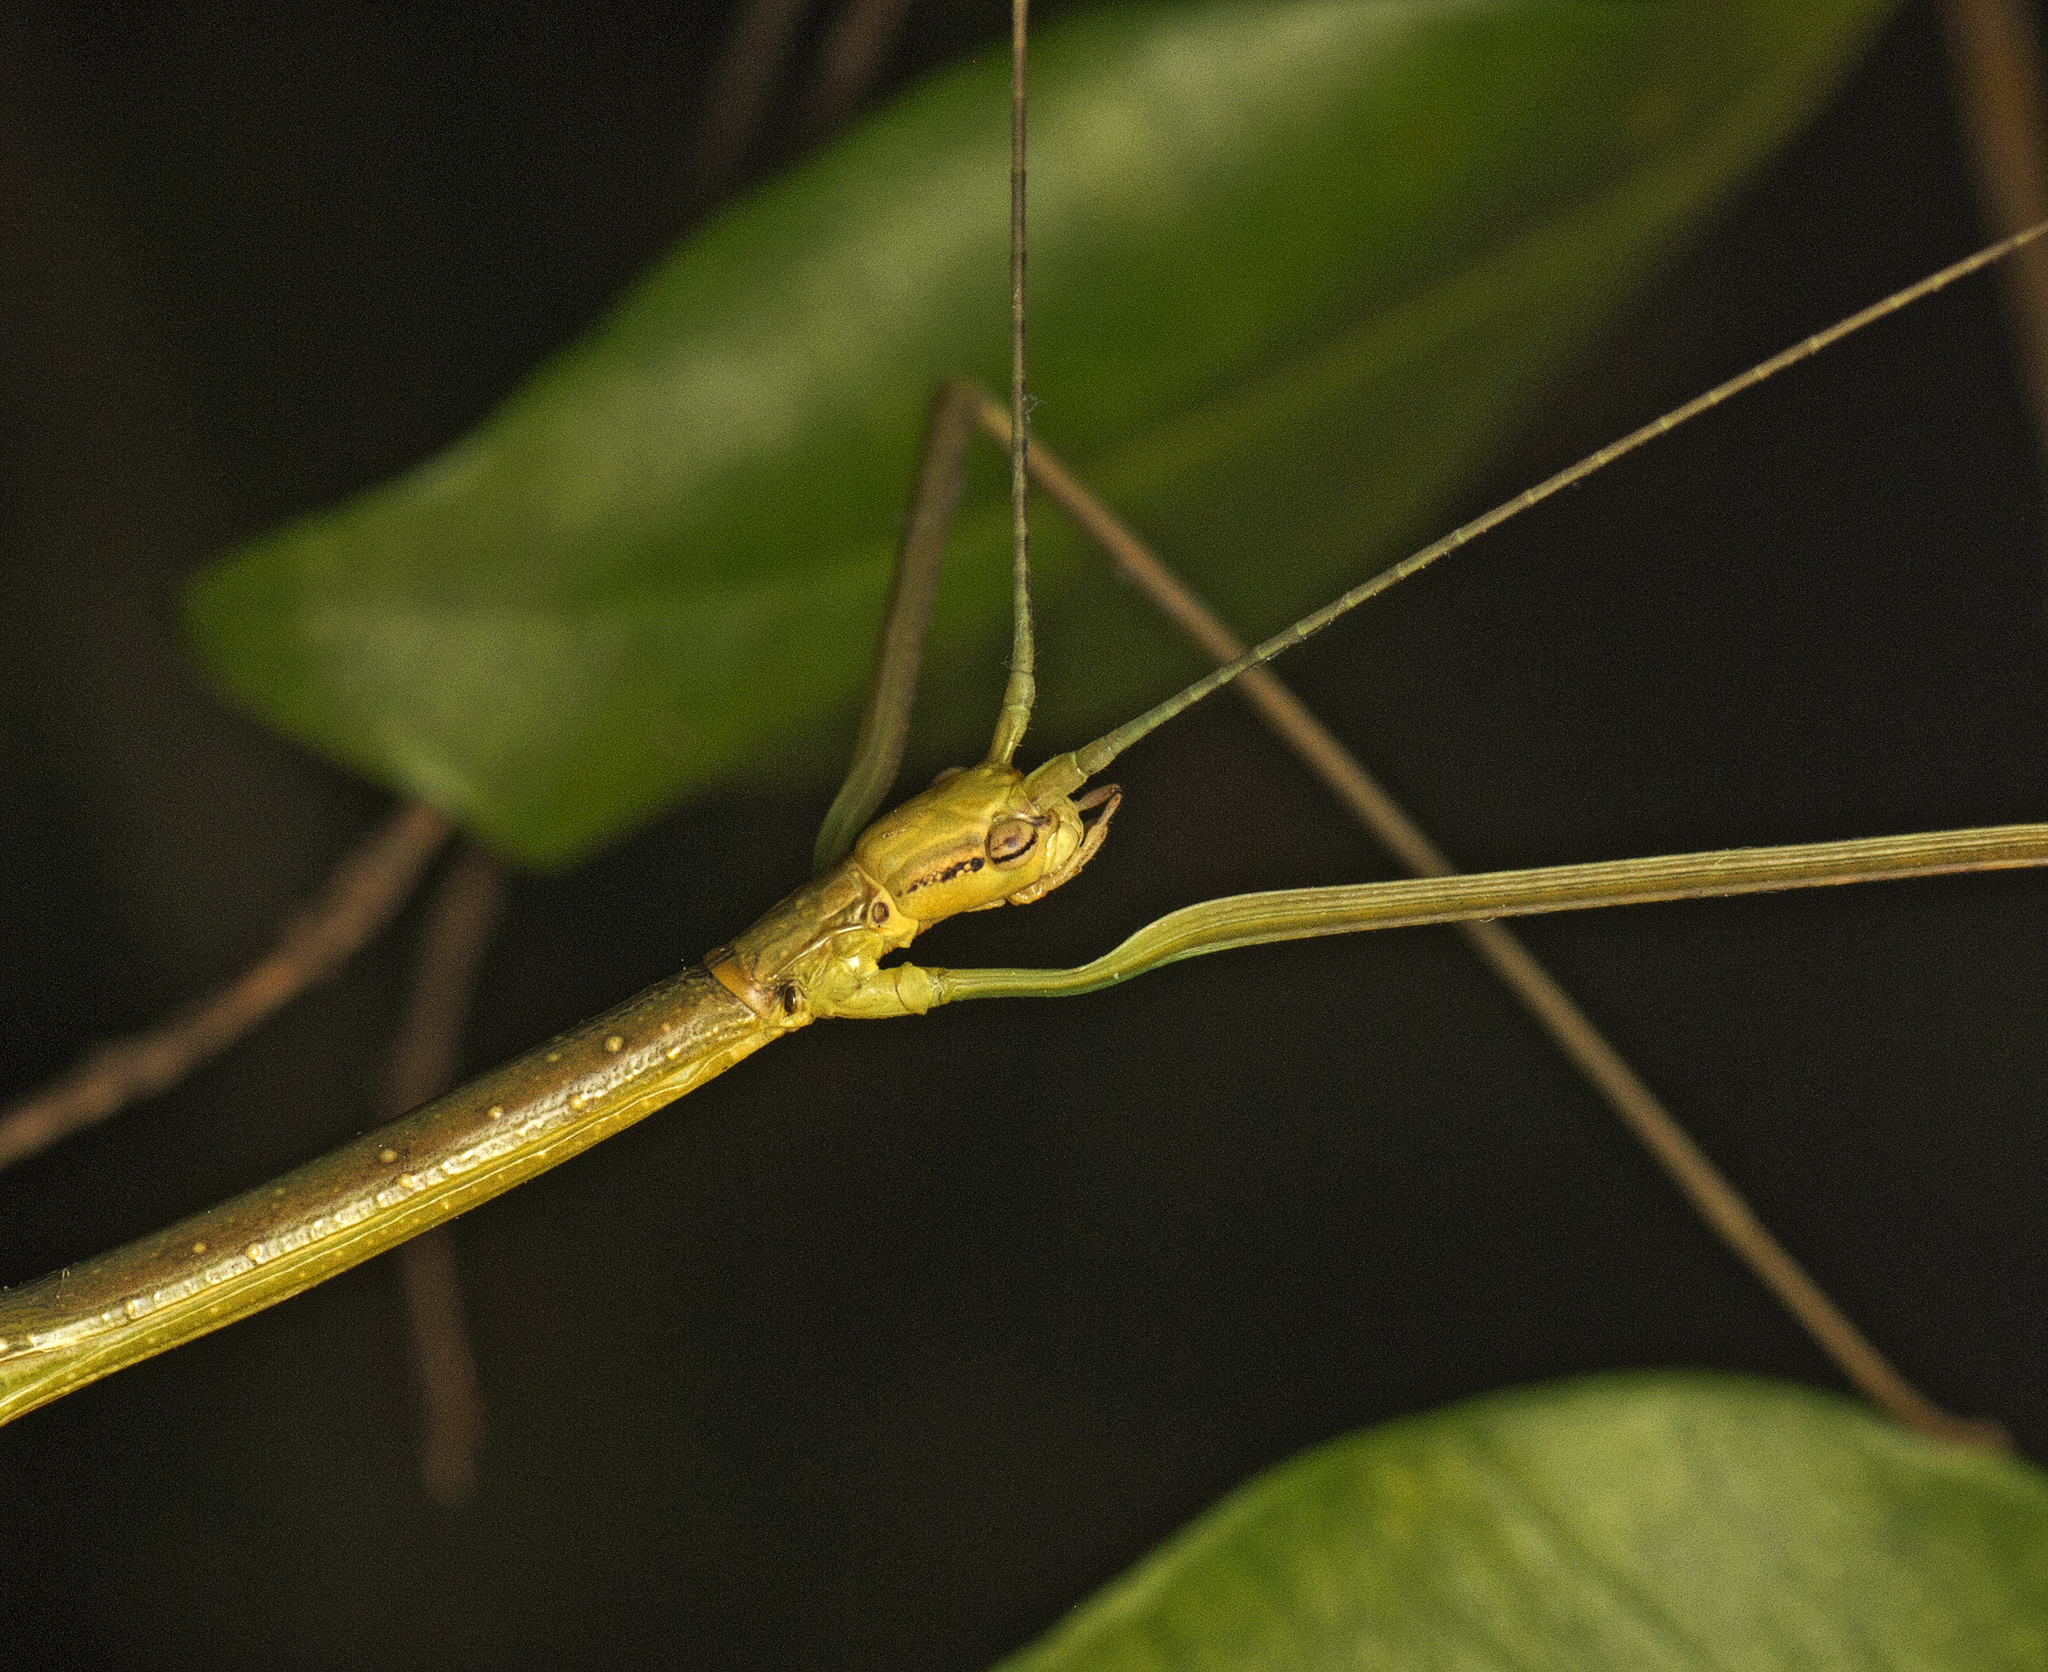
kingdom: Animalia
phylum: Arthropoda
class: Insecta
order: Phasmida
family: Lonchodidae
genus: Candovia
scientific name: Candovia aberrata
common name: Aberrant stick-insect
